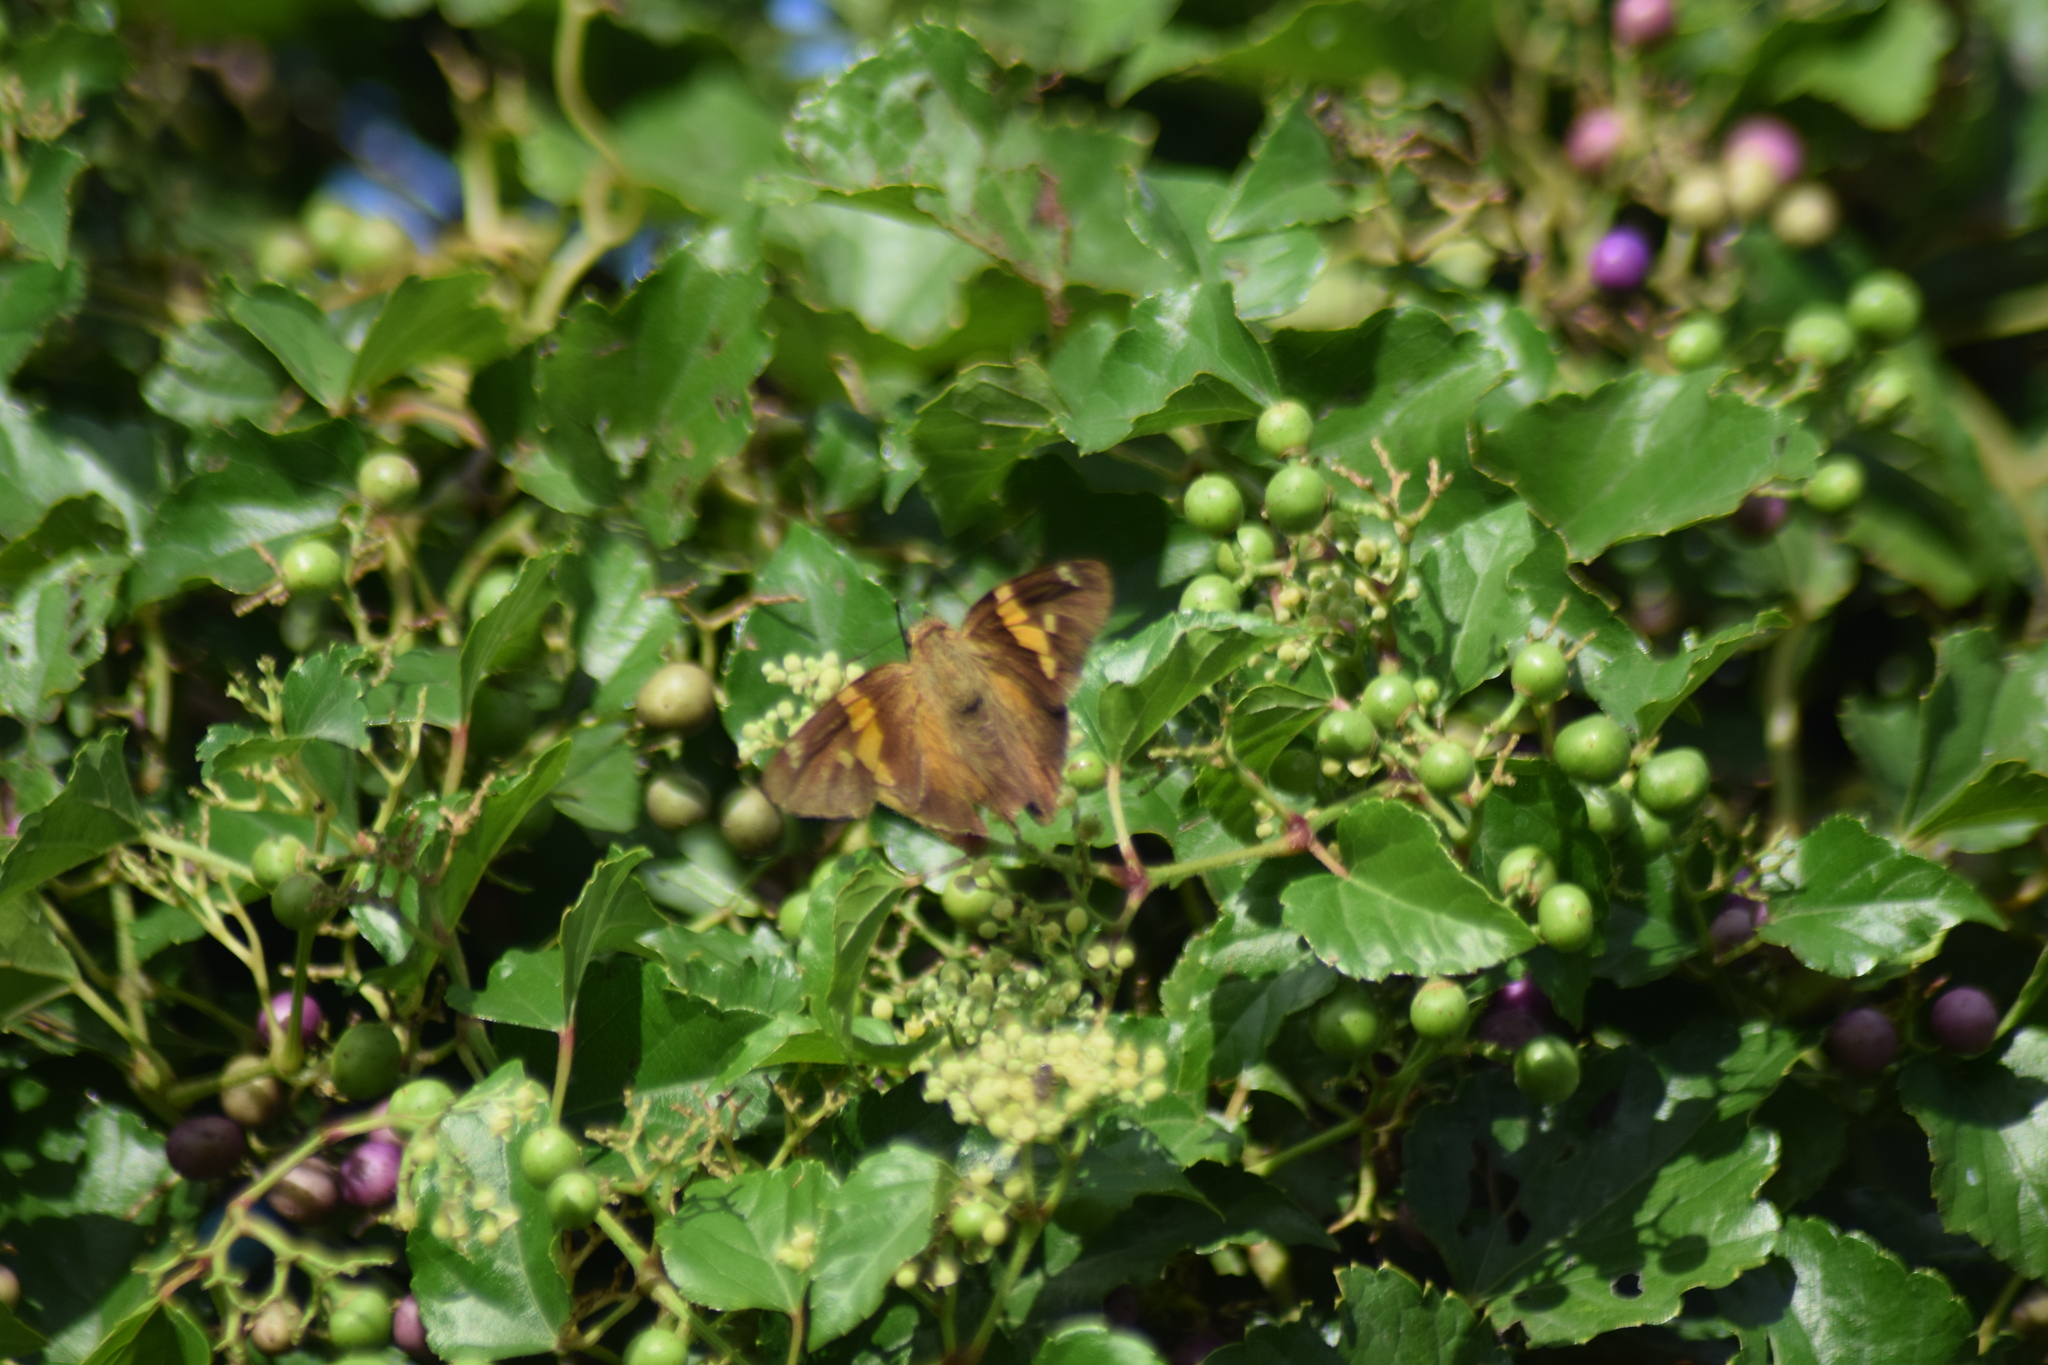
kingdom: Animalia
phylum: Arthropoda
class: Insecta
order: Lepidoptera
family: Hesperiidae
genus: Epargyreus
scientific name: Epargyreus clarus
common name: Silver-spotted skipper
